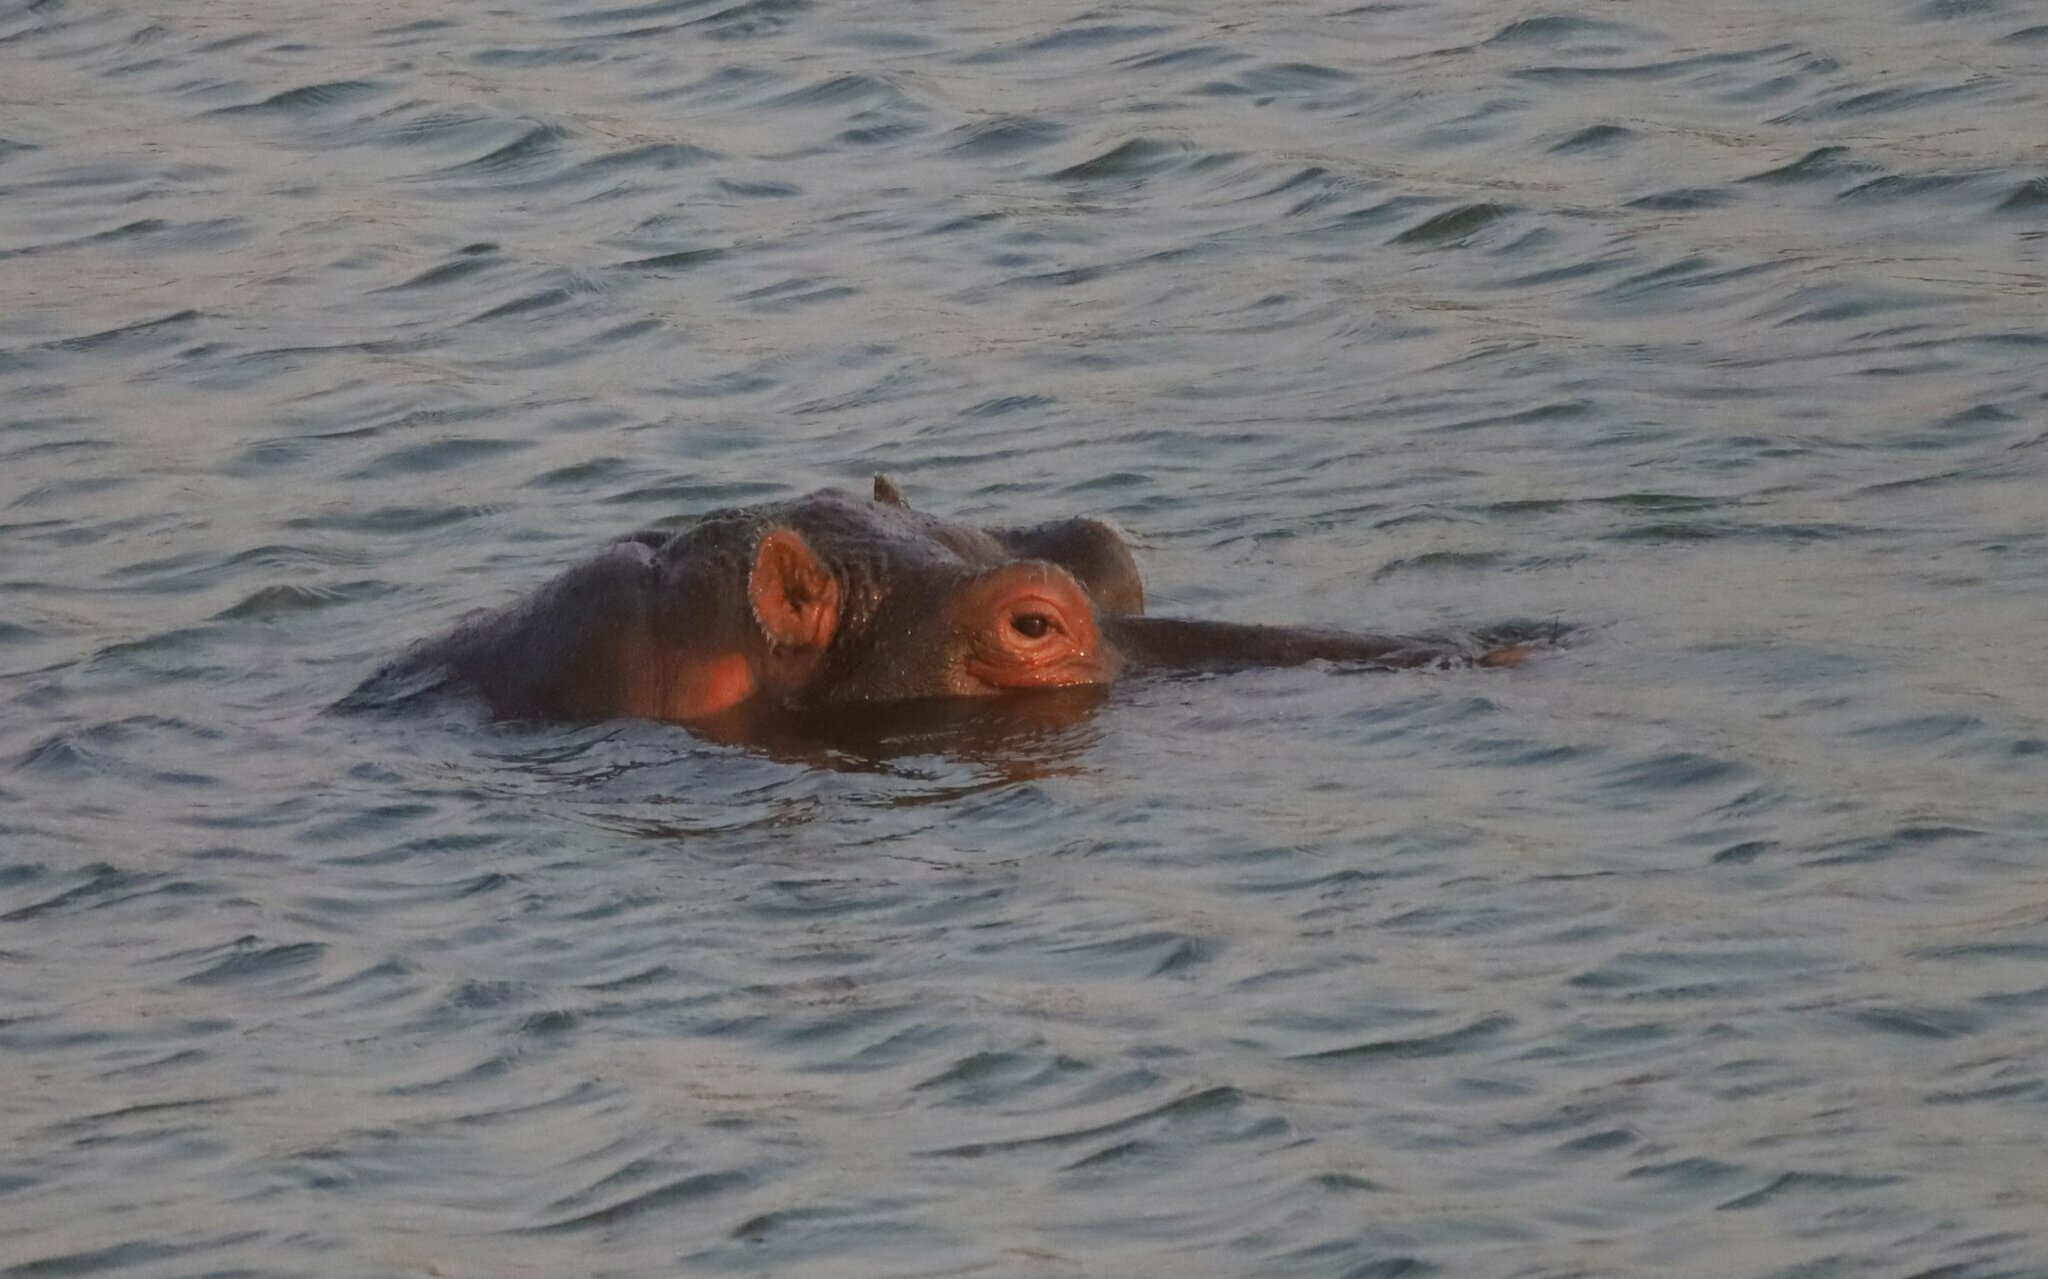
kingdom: Animalia
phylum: Chordata
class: Mammalia
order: Artiodactyla
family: Hippopotamidae
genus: Hippopotamus
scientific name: Hippopotamus amphibius
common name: Common hippopotamus
